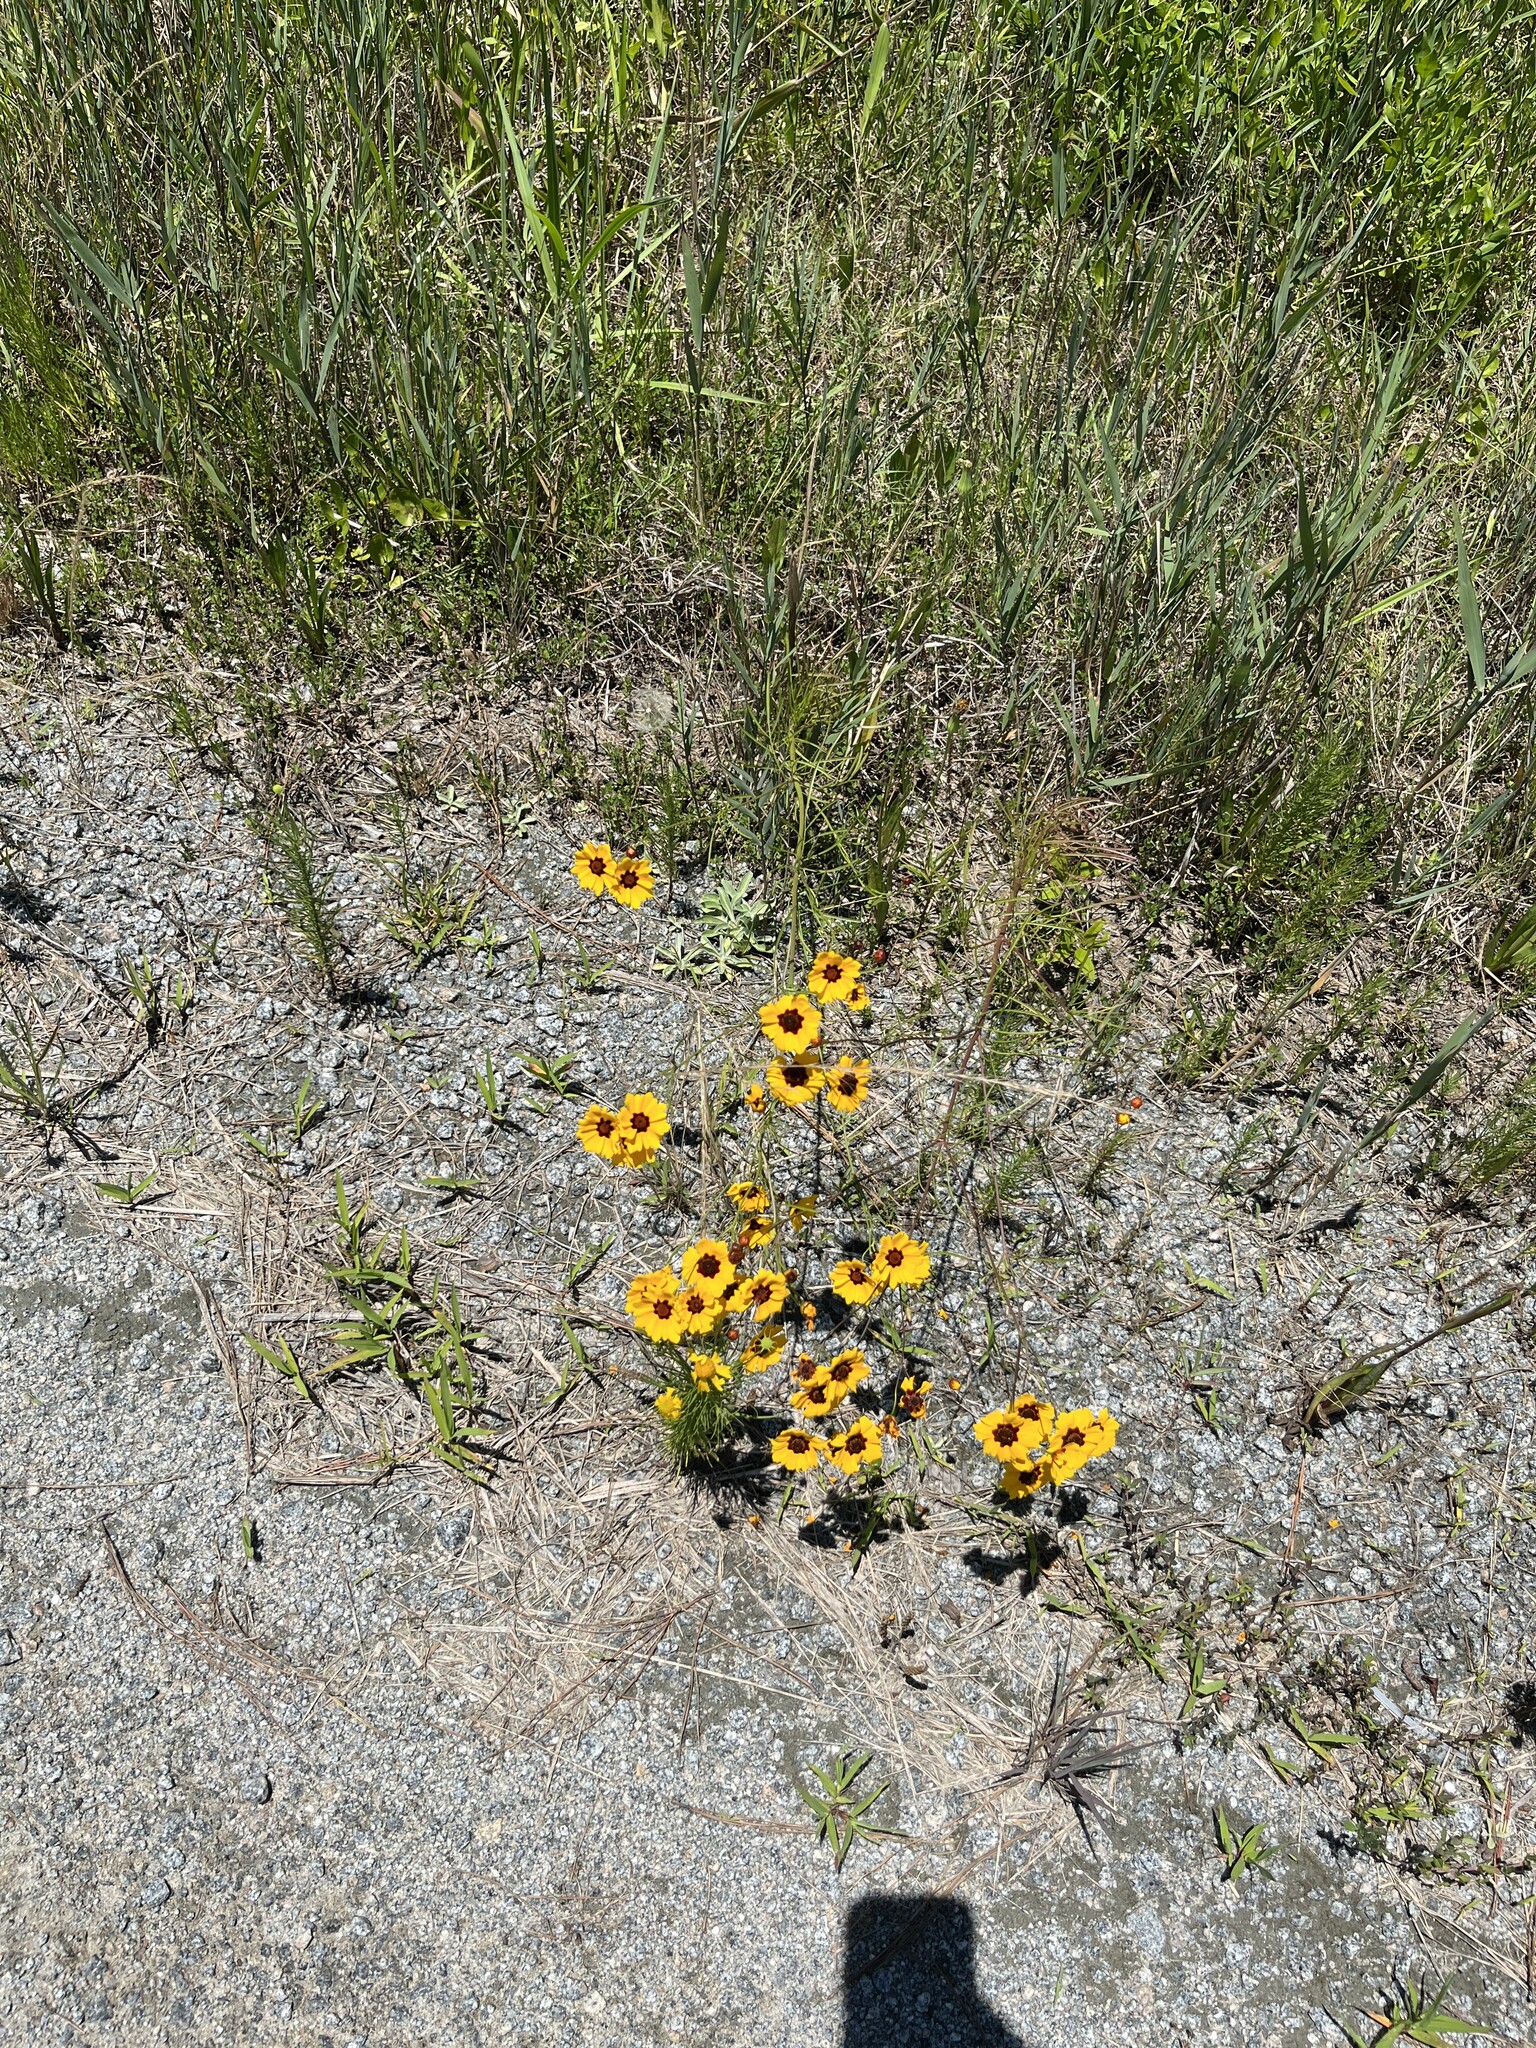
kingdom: Plantae
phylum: Tracheophyta
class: Magnoliopsida
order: Asterales
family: Asteraceae
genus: Coreopsis
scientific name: Coreopsis tinctoria
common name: Garden tickseed
